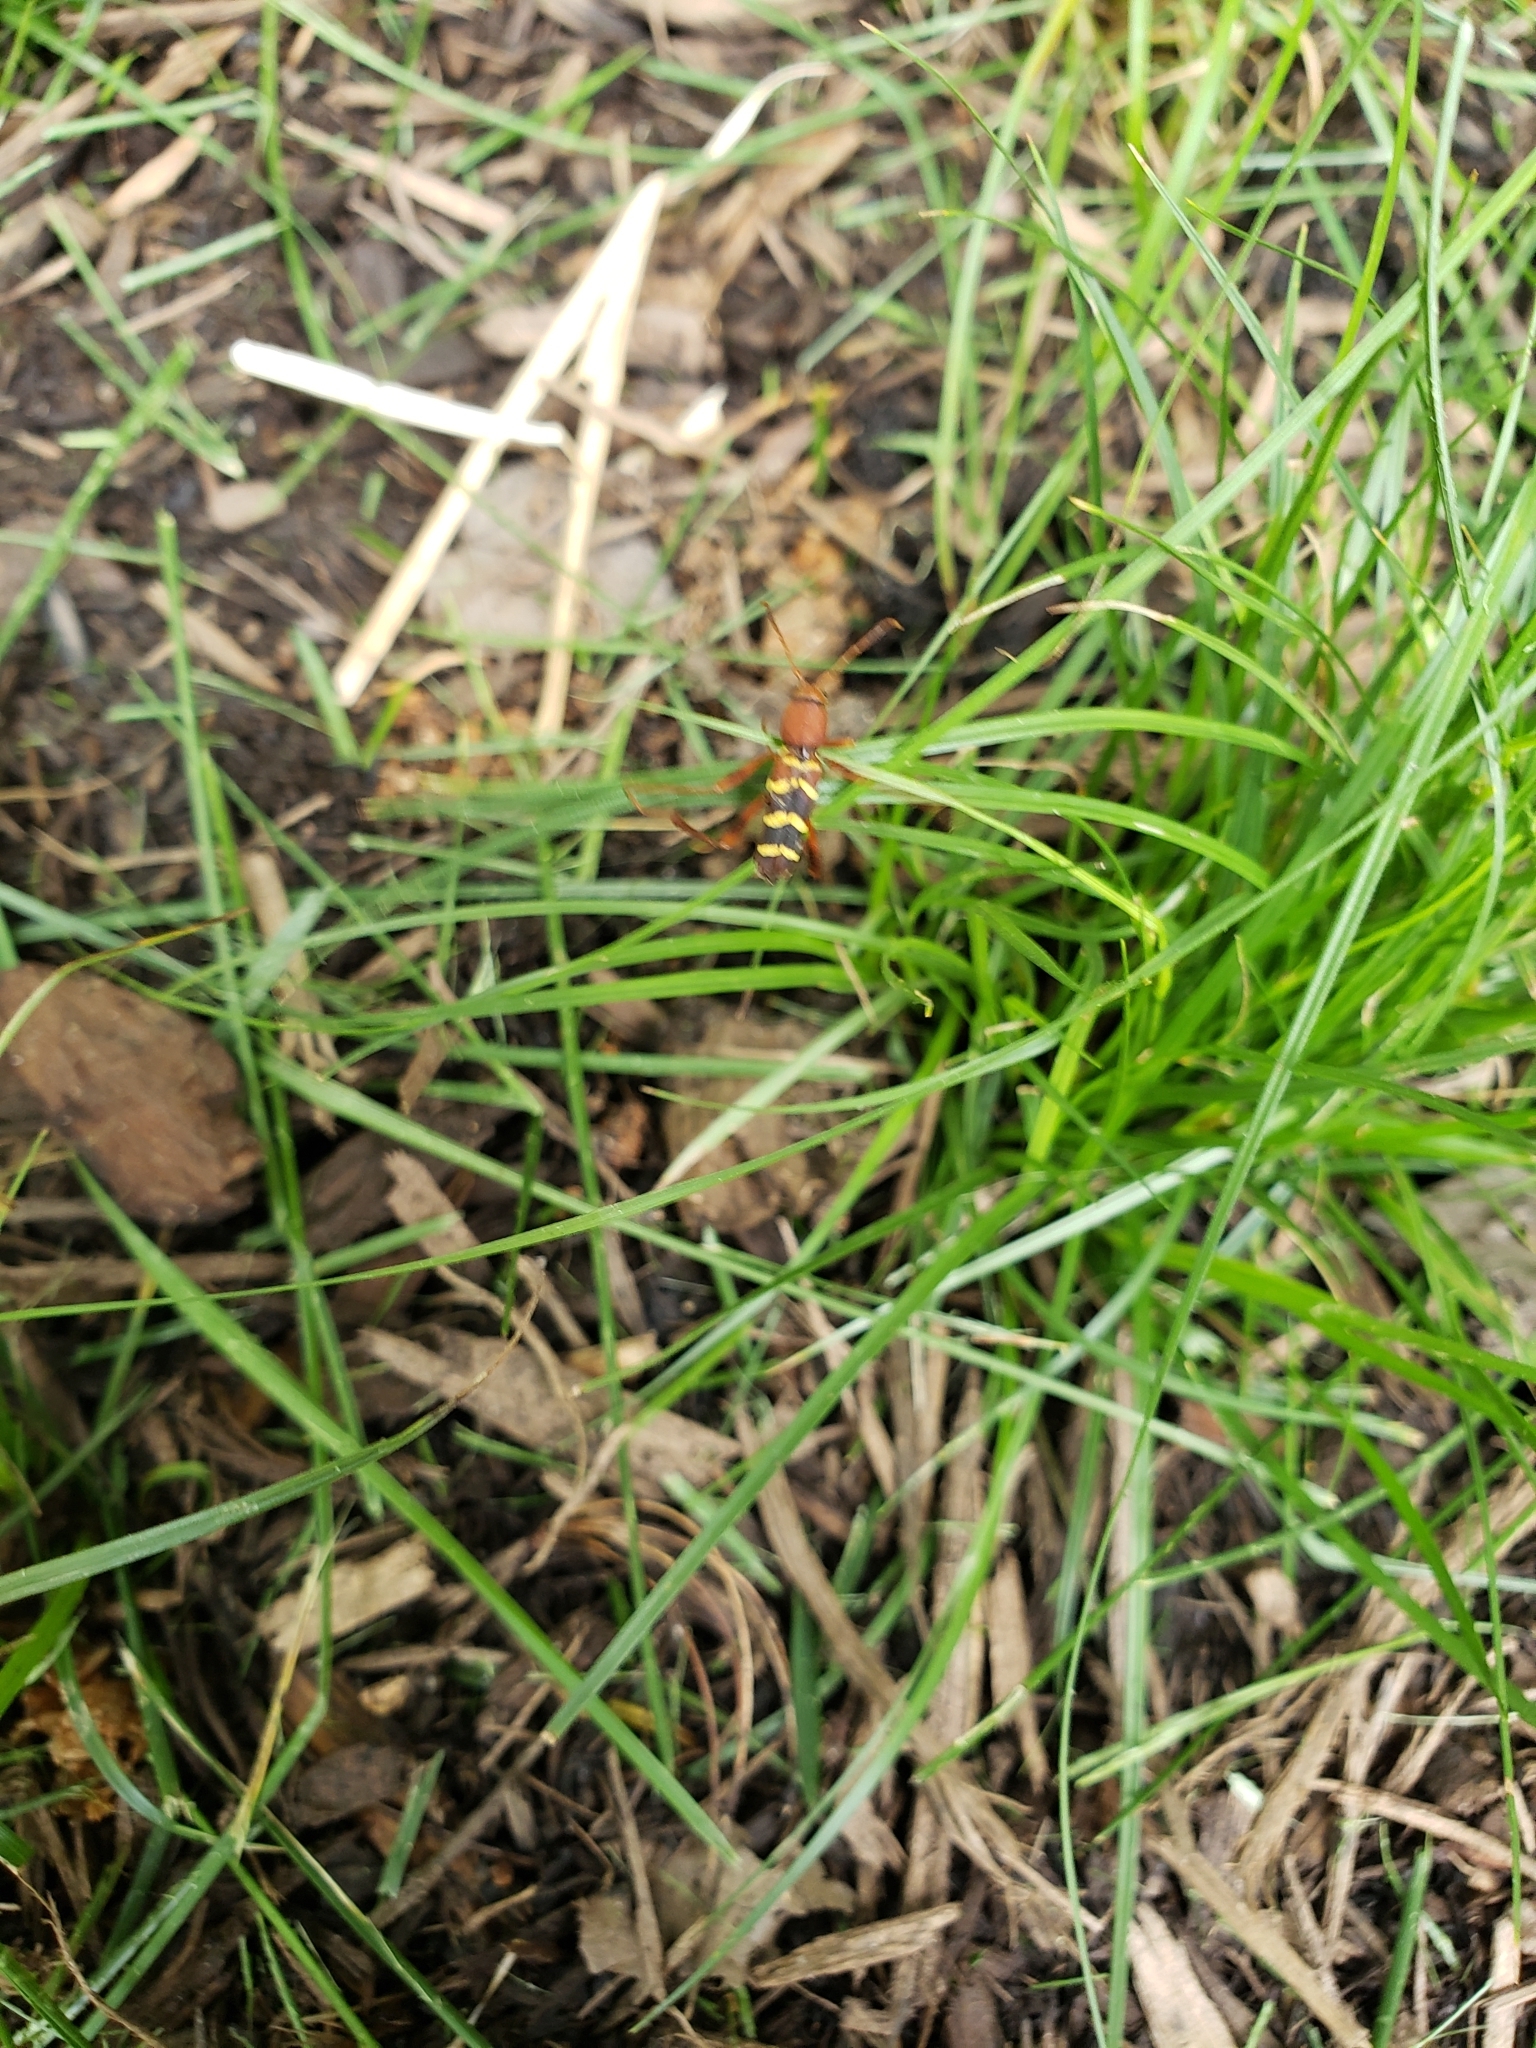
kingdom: Animalia
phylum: Arthropoda
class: Insecta
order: Coleoptera
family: Cerambycidae
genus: Neoclytus
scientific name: Neoclytus acuminatus
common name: Read-headed ash borer
